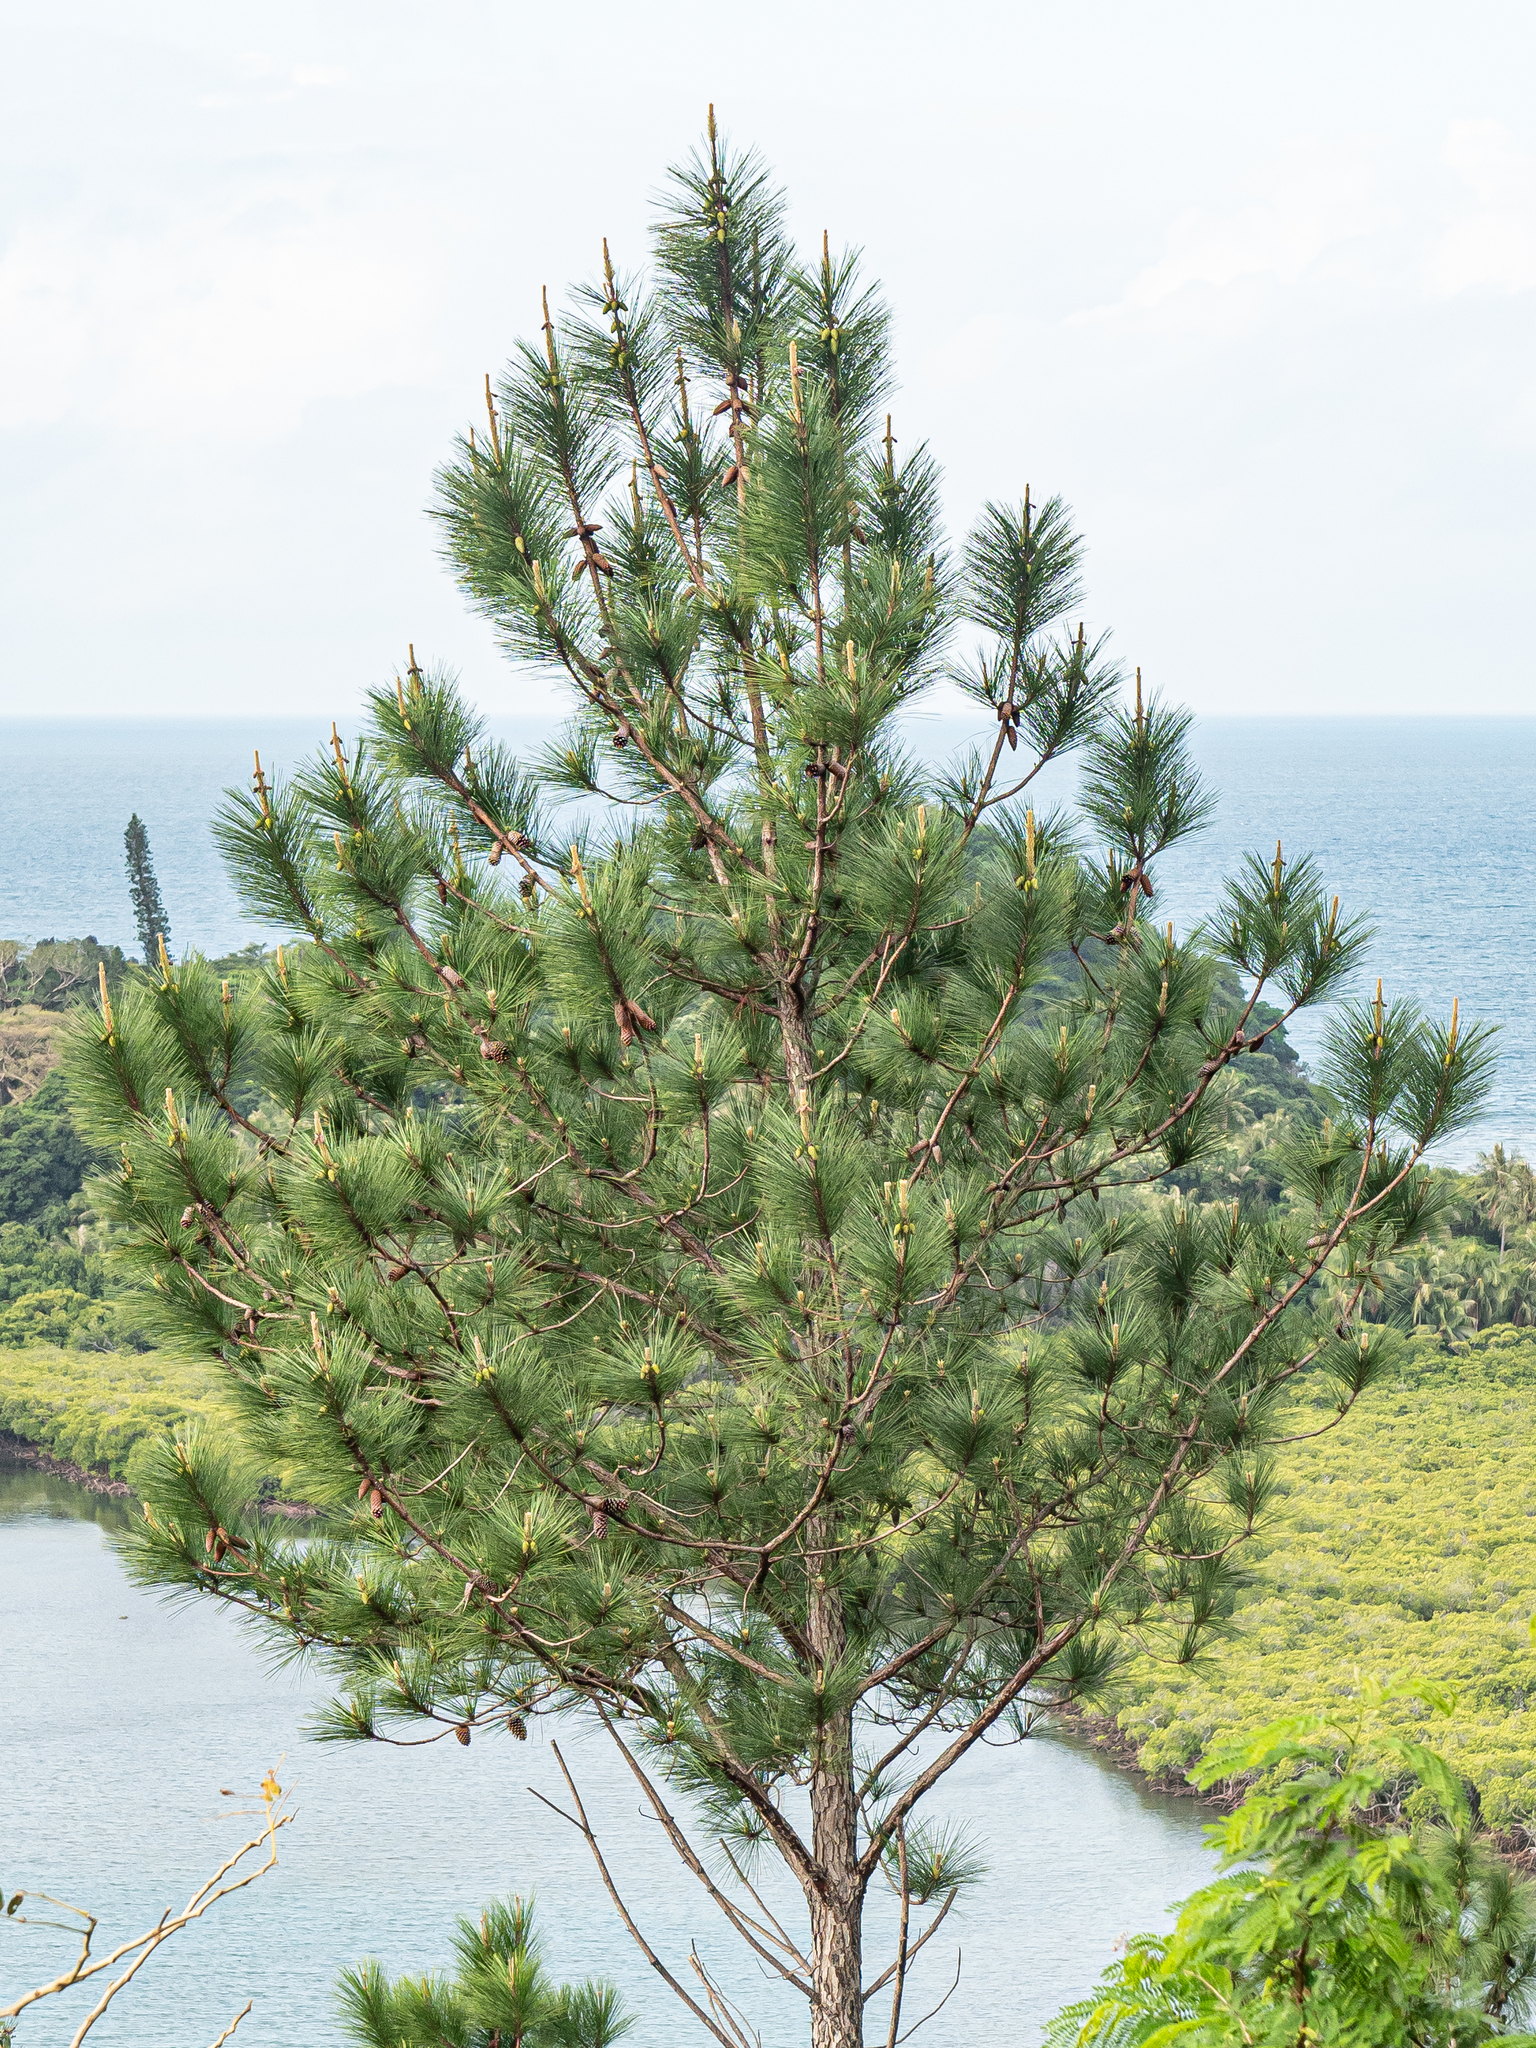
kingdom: Plantae
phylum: Tracheophyta
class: Pinopsida
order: Pinales
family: Pinaceae
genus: Pinus
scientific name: Pinus caribaea
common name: Caribbean pine
